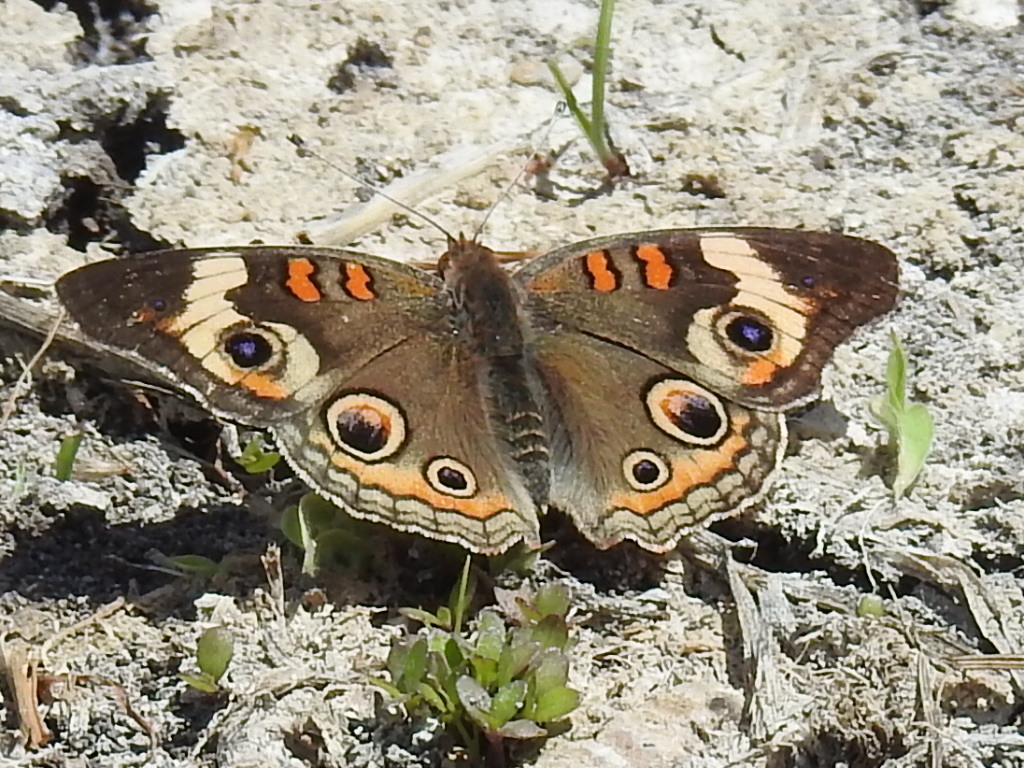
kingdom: Animalia
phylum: Arthropoda
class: Insecta
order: Lepidoptera
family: Nymphalidae
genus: Junonia
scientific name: Junonia coenia
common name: Common buckeye
